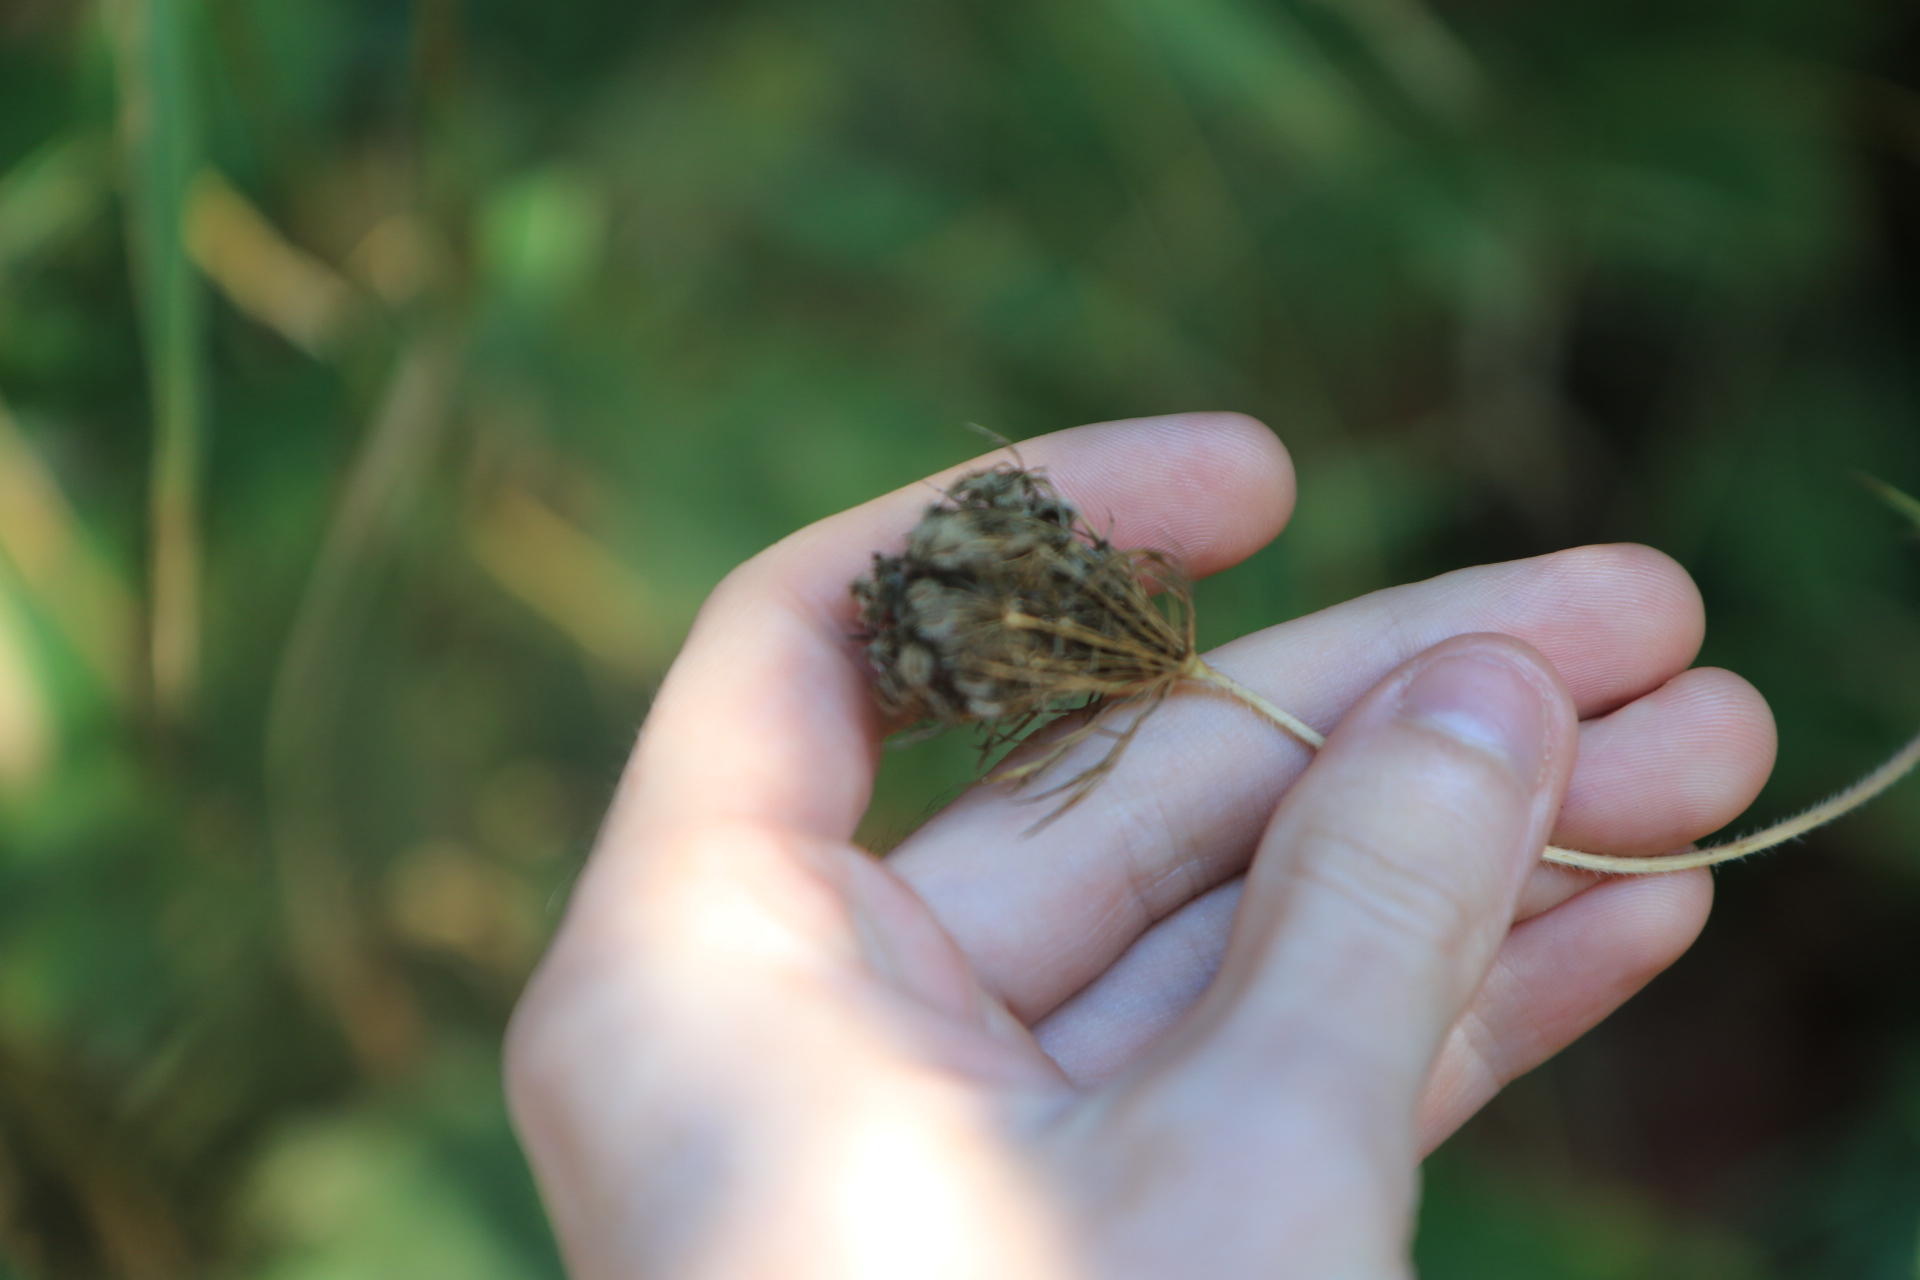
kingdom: Plantae
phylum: Tracheophyta
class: Magnoliopsida
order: Apiales
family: Apiaceae
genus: Daucus
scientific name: Daucus carota
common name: Wild carrot
